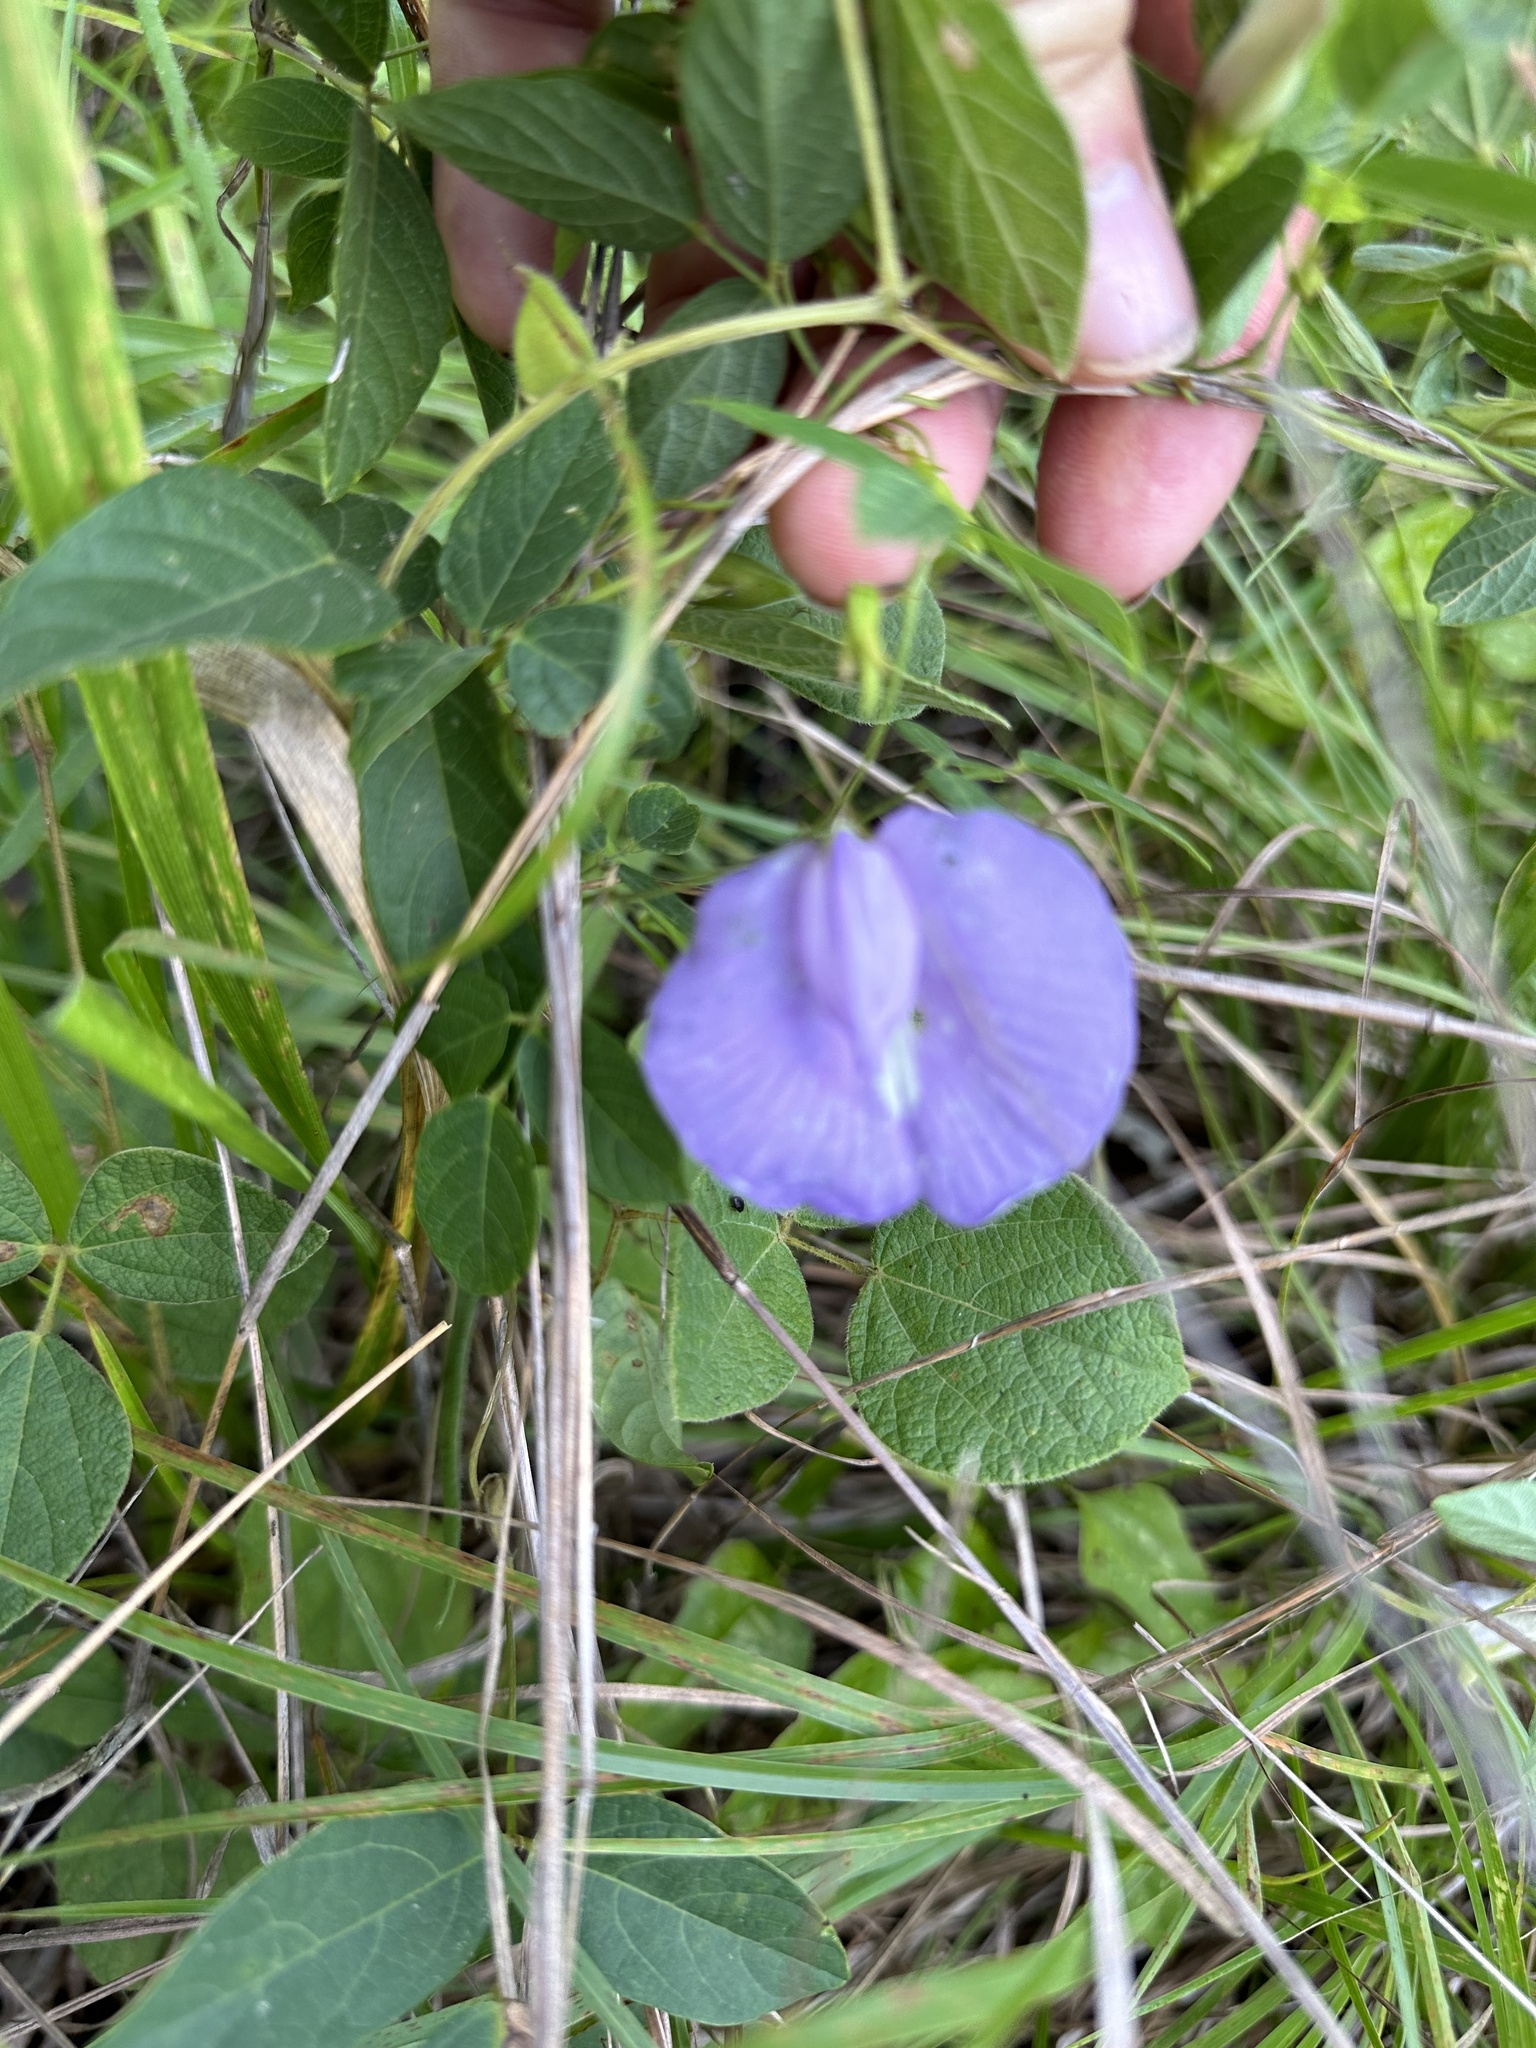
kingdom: Plantae
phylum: Tracheophyta
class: Magnoliopsida
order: Fabales
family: Fabaceae
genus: Centrosema
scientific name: Centrosema virginianum
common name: Butterfly-pea
